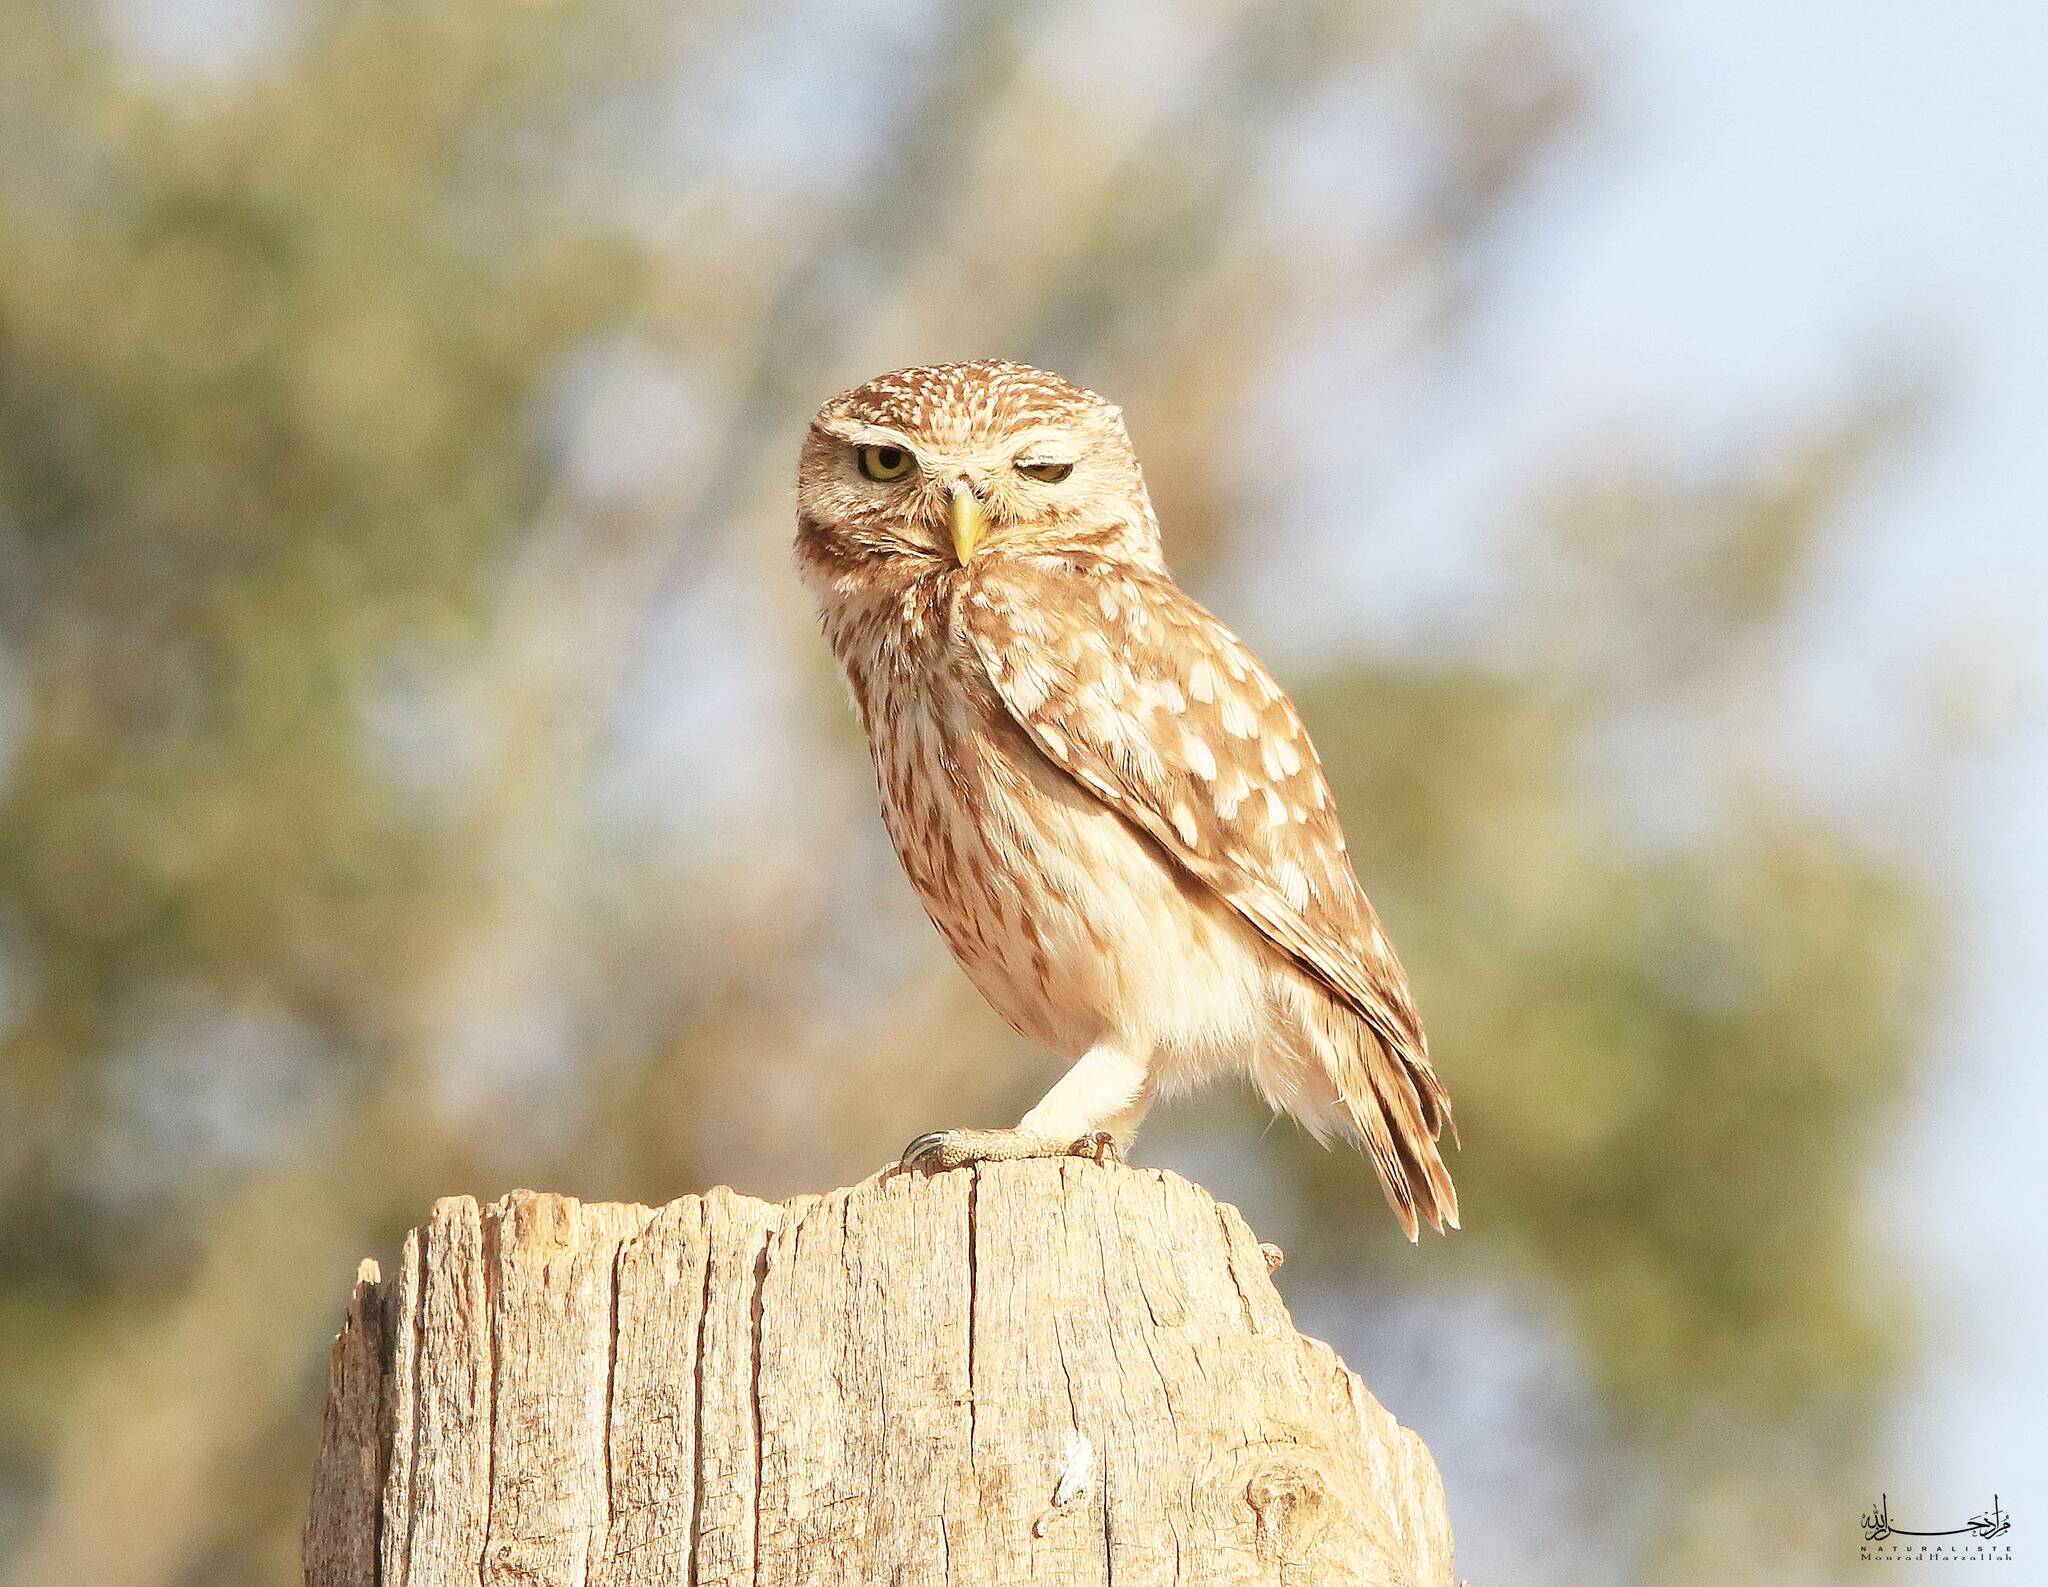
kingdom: Animalia
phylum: Chordata
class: Aves
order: Strigiformes
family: Strigidae
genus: Athene
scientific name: Athene noctua
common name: Little owl
